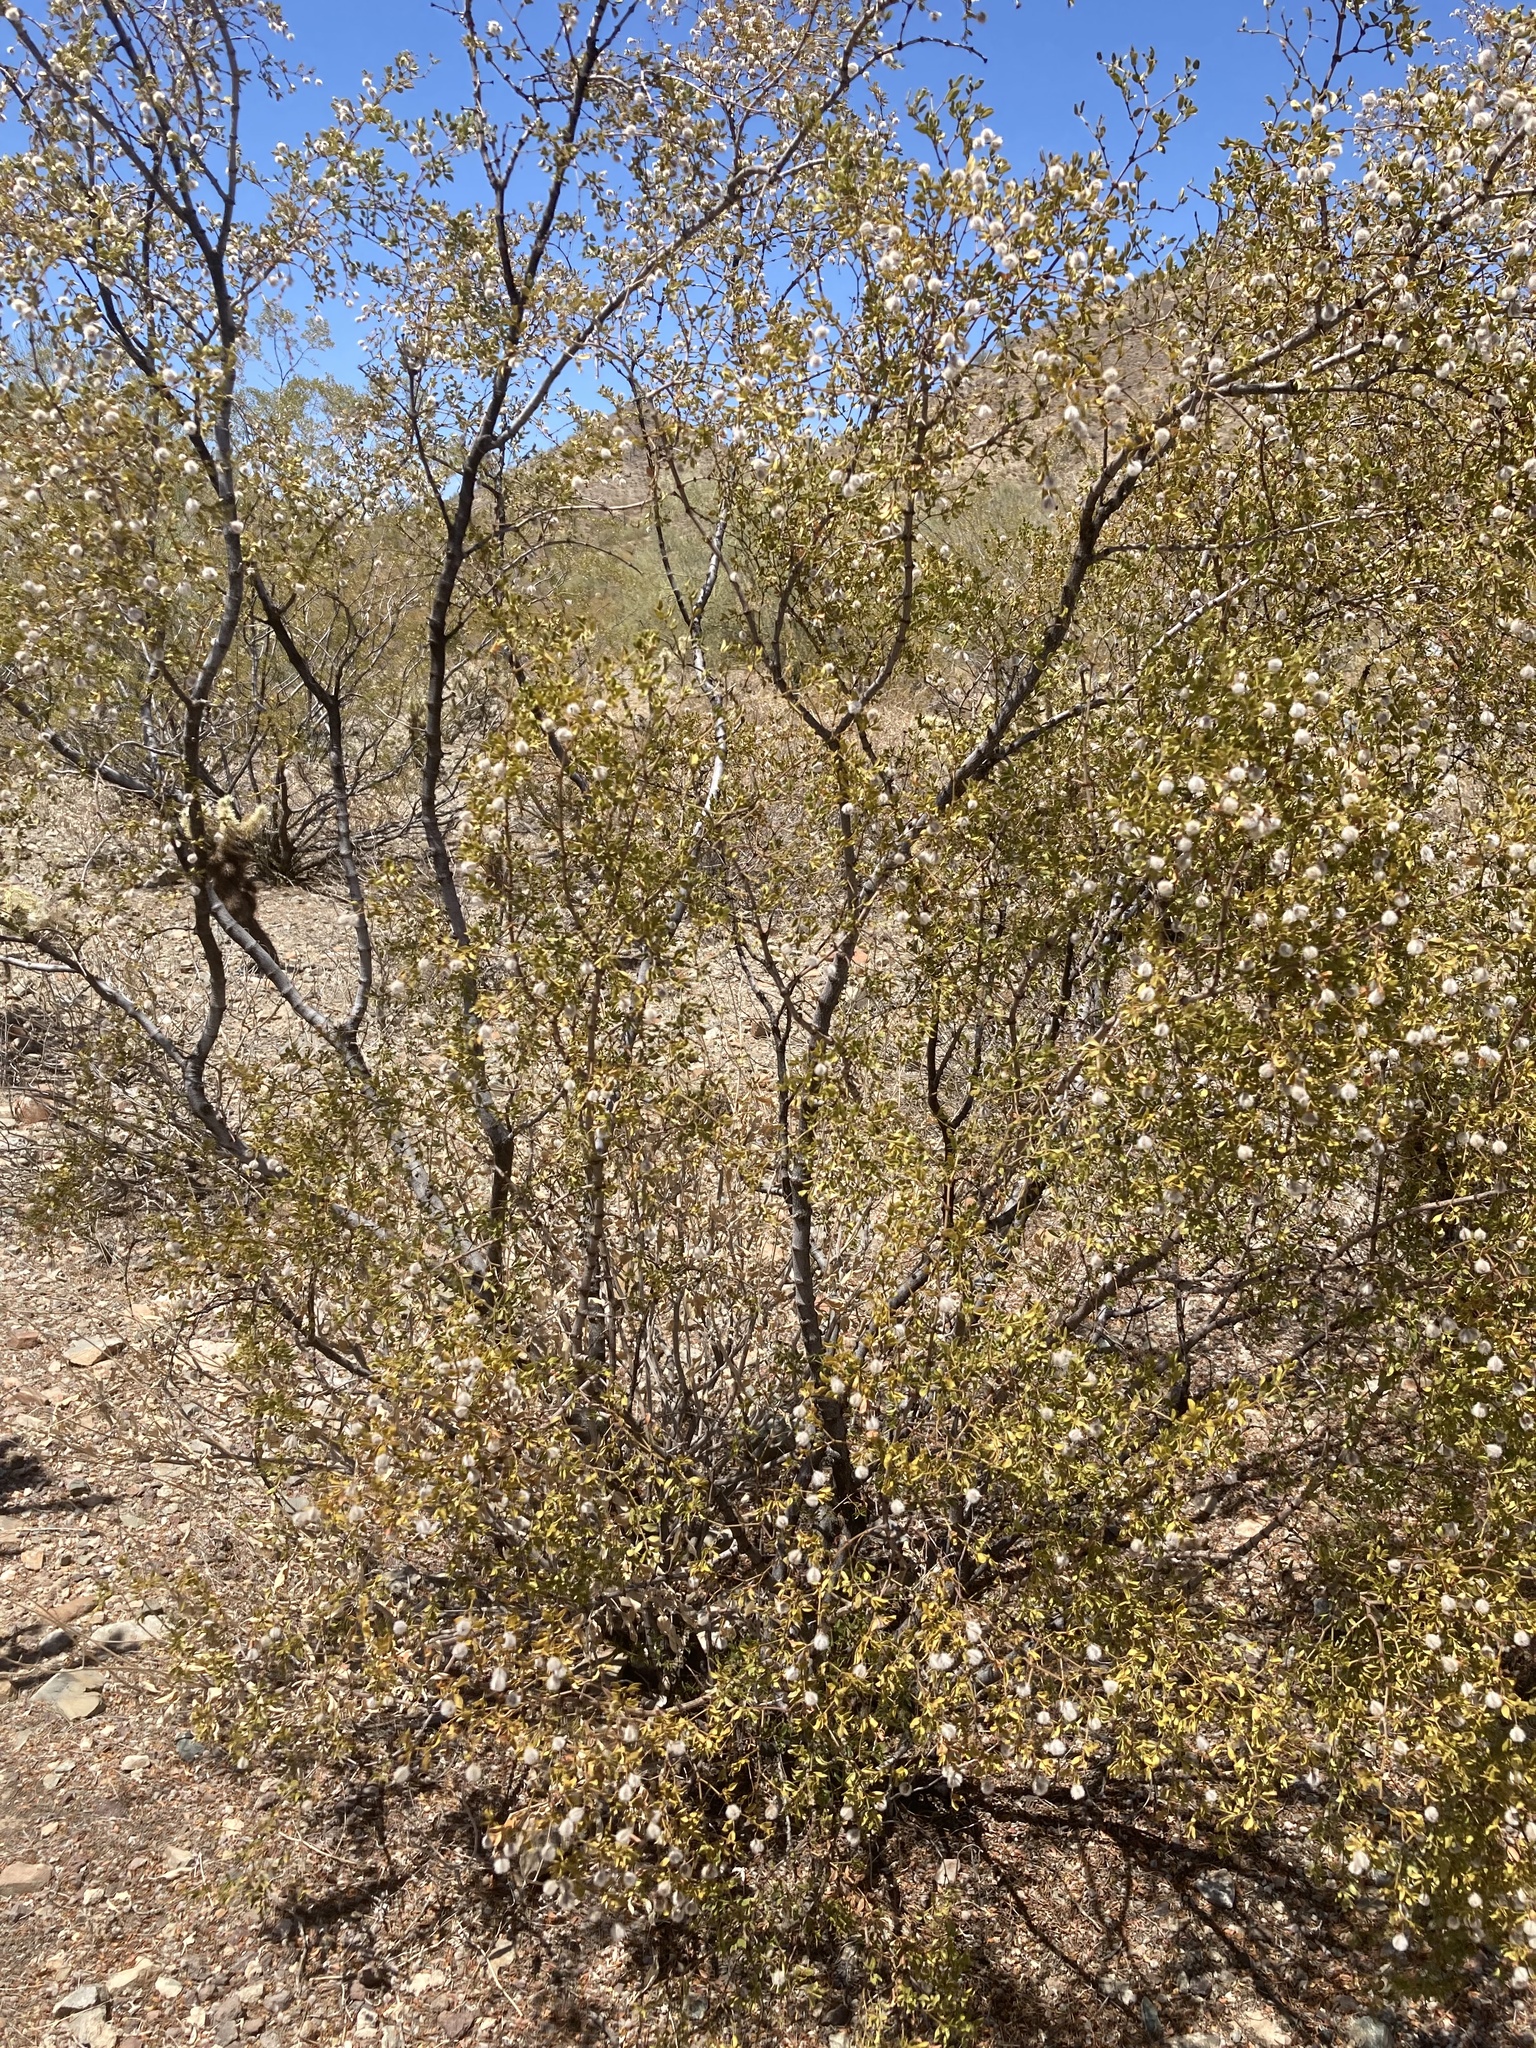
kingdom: Plantae
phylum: Tracheophyta
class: Magnoliopsida
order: Zygophyllales
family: Zygophyllaceae
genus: Larrea
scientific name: Larrea tridentata
